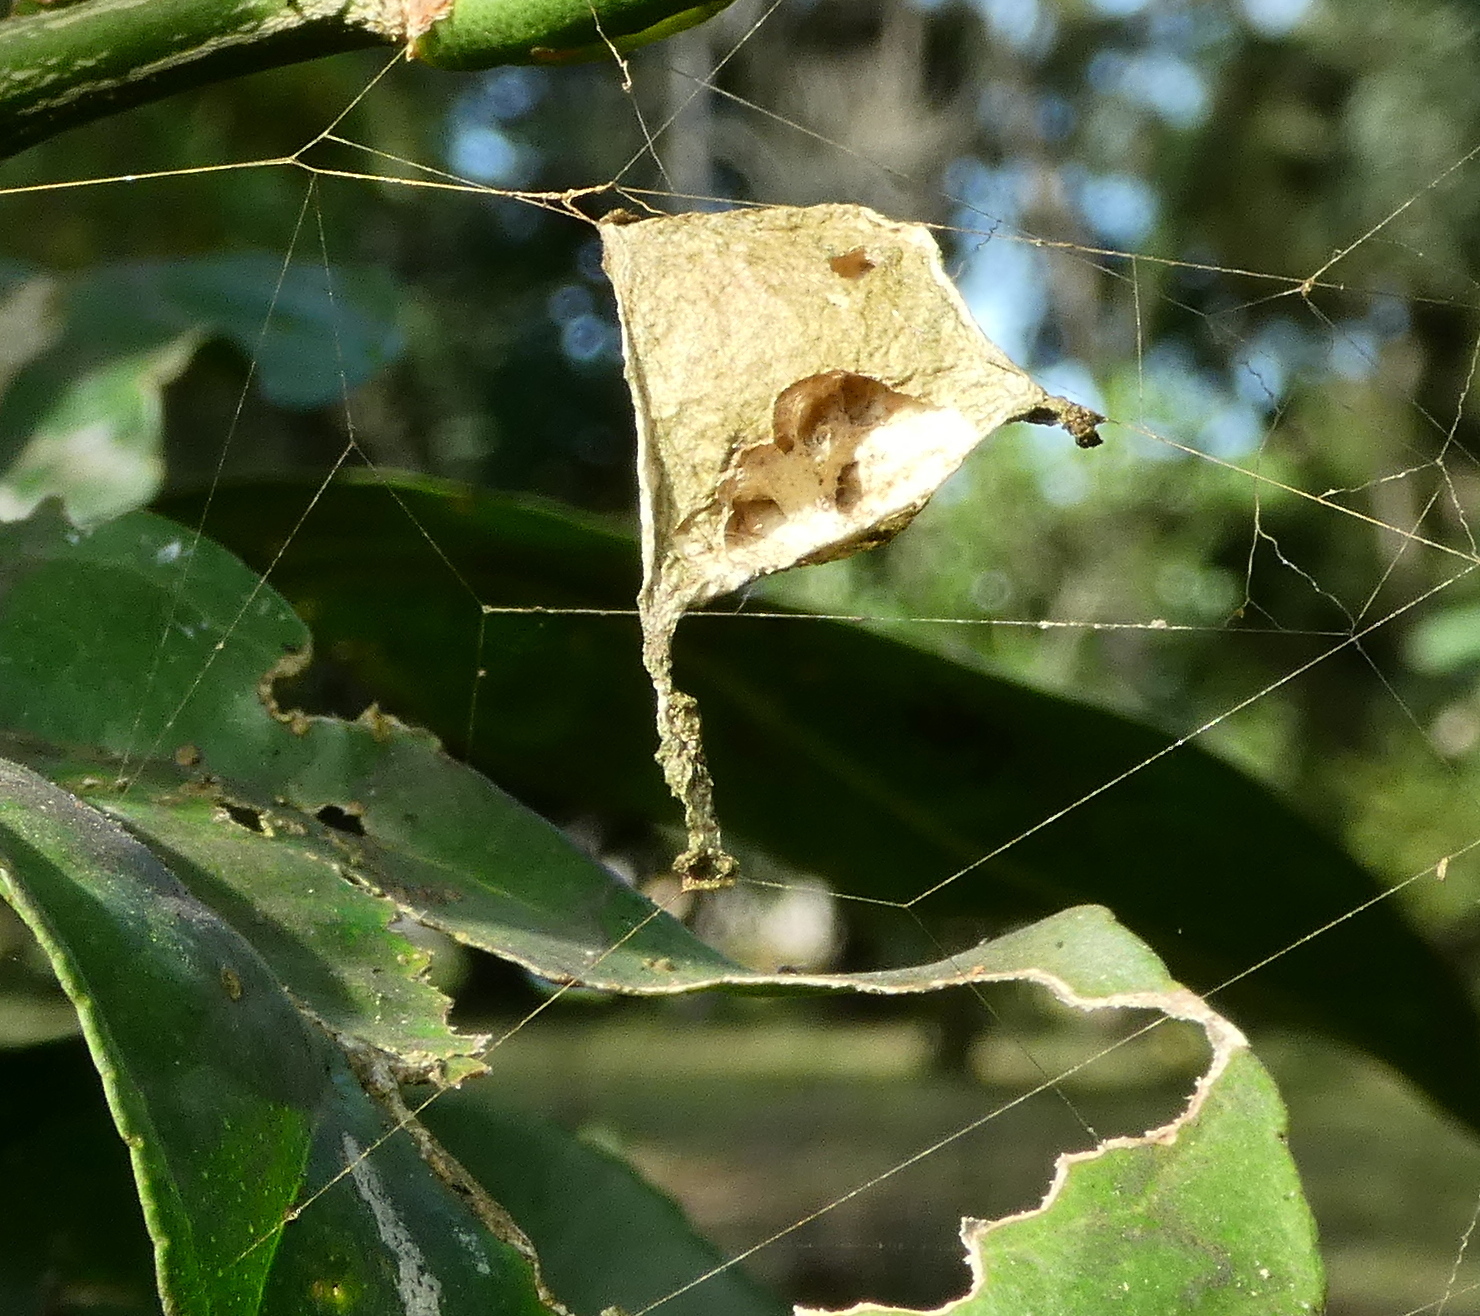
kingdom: Animalia
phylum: Arthropoda
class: Arachnida
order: Araneae
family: Araneidae
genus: Argiope
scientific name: Argiope argentata
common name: Orb weavers
